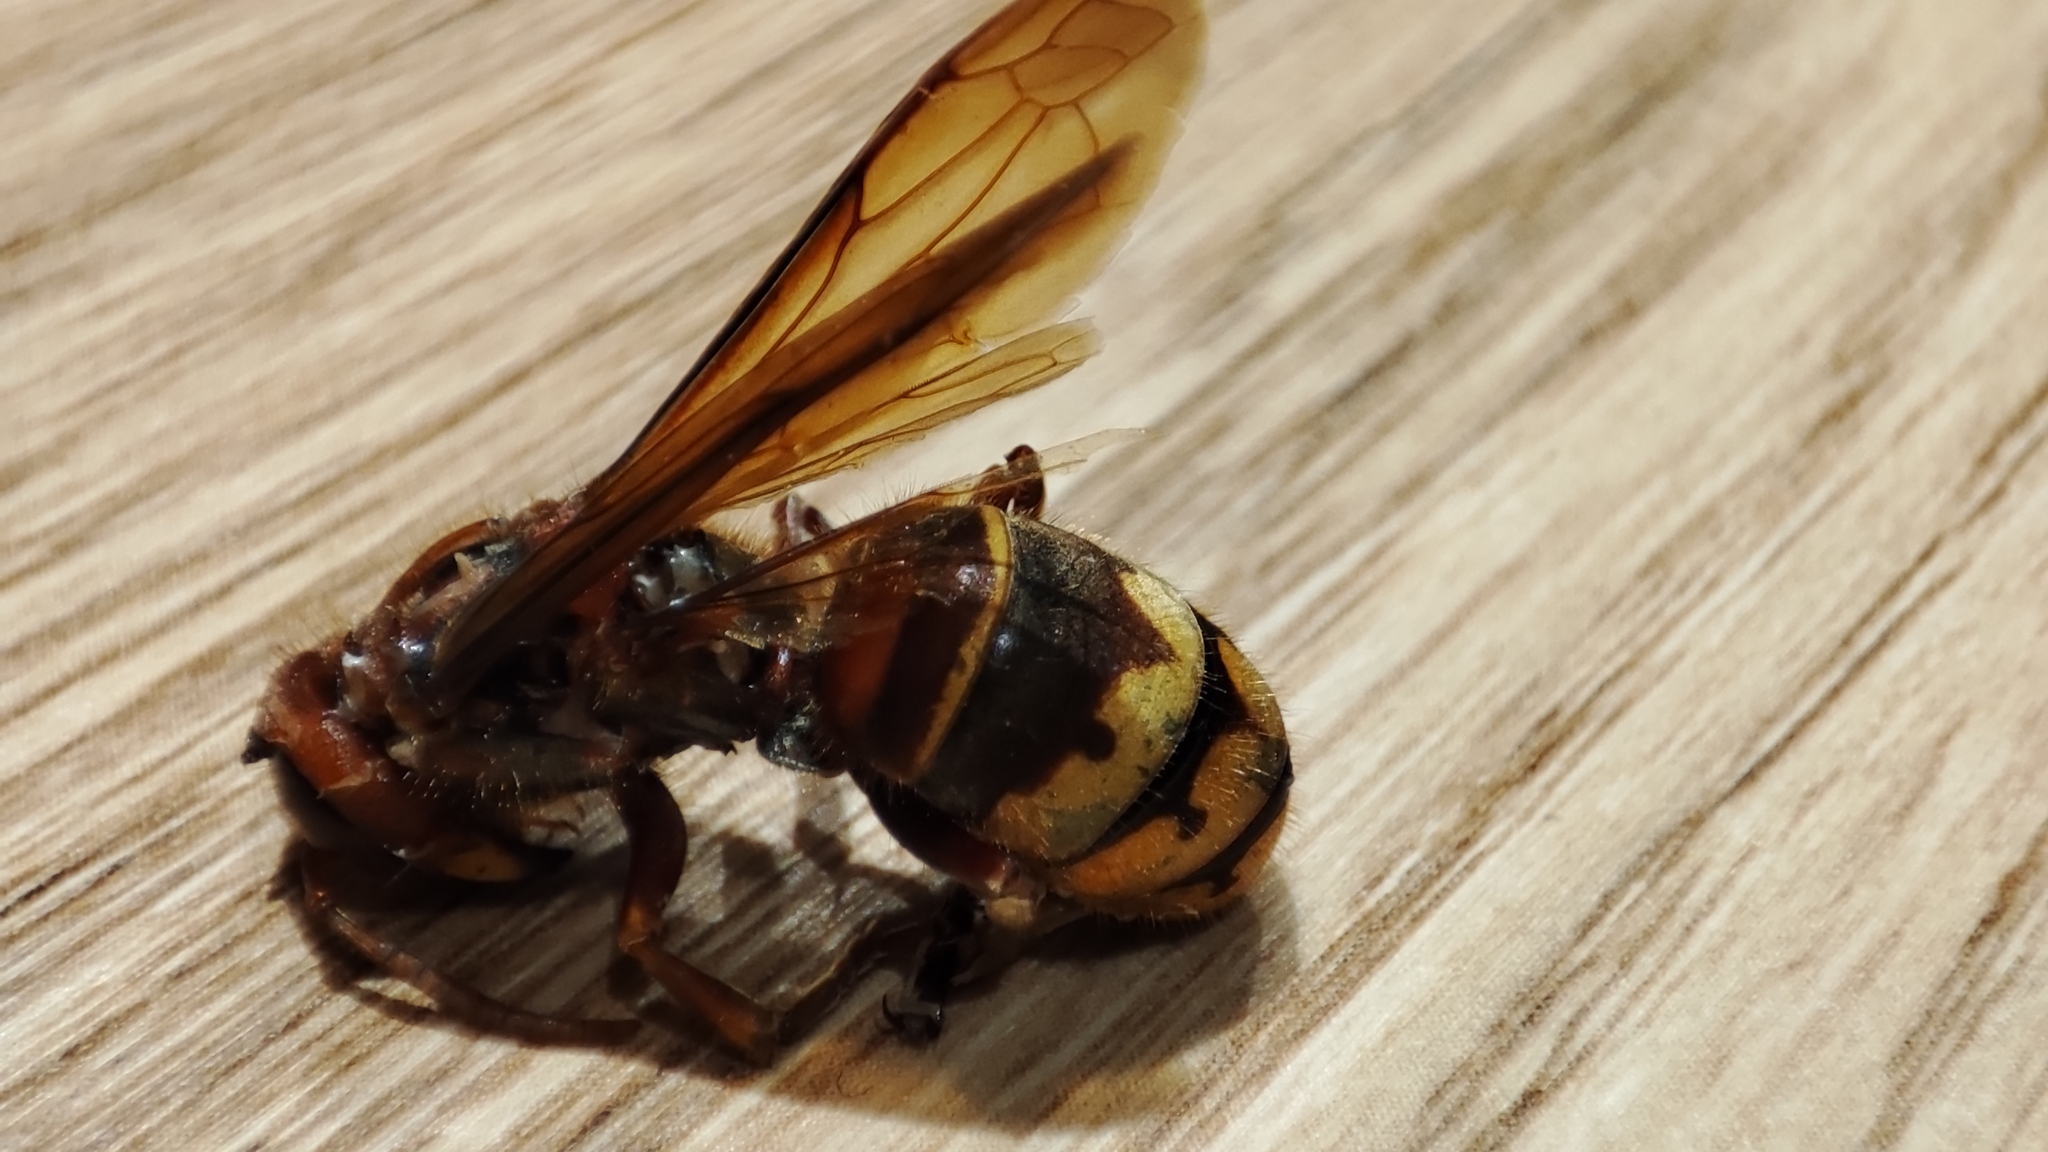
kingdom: Animalia
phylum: Arthropoda
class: Insecta
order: Hymenoptera
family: Vespidae
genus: Vespa
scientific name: Vespa crabro
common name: Hornet
